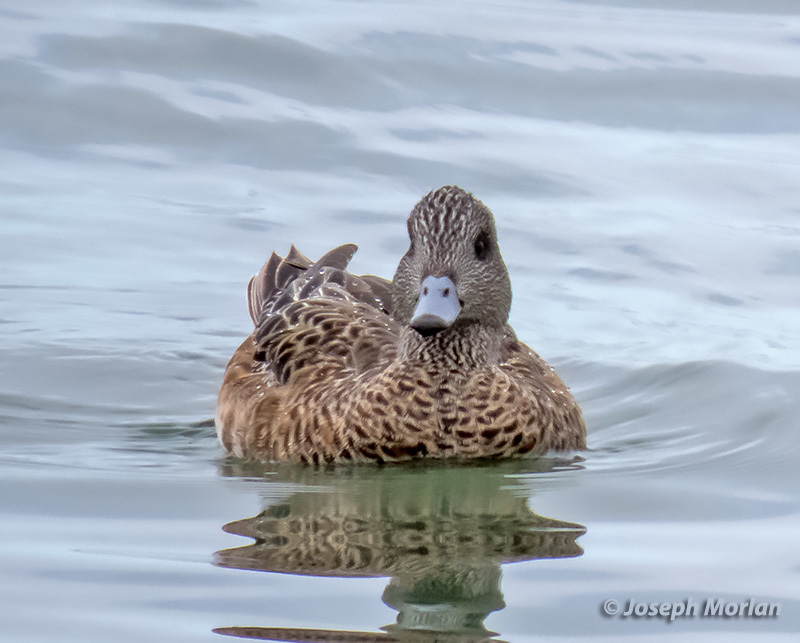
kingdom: Animalia
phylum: Chordata
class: Aves
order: Anseriformes
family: Anatidae
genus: Mareca
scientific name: Mareca americana
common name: American wigeon
